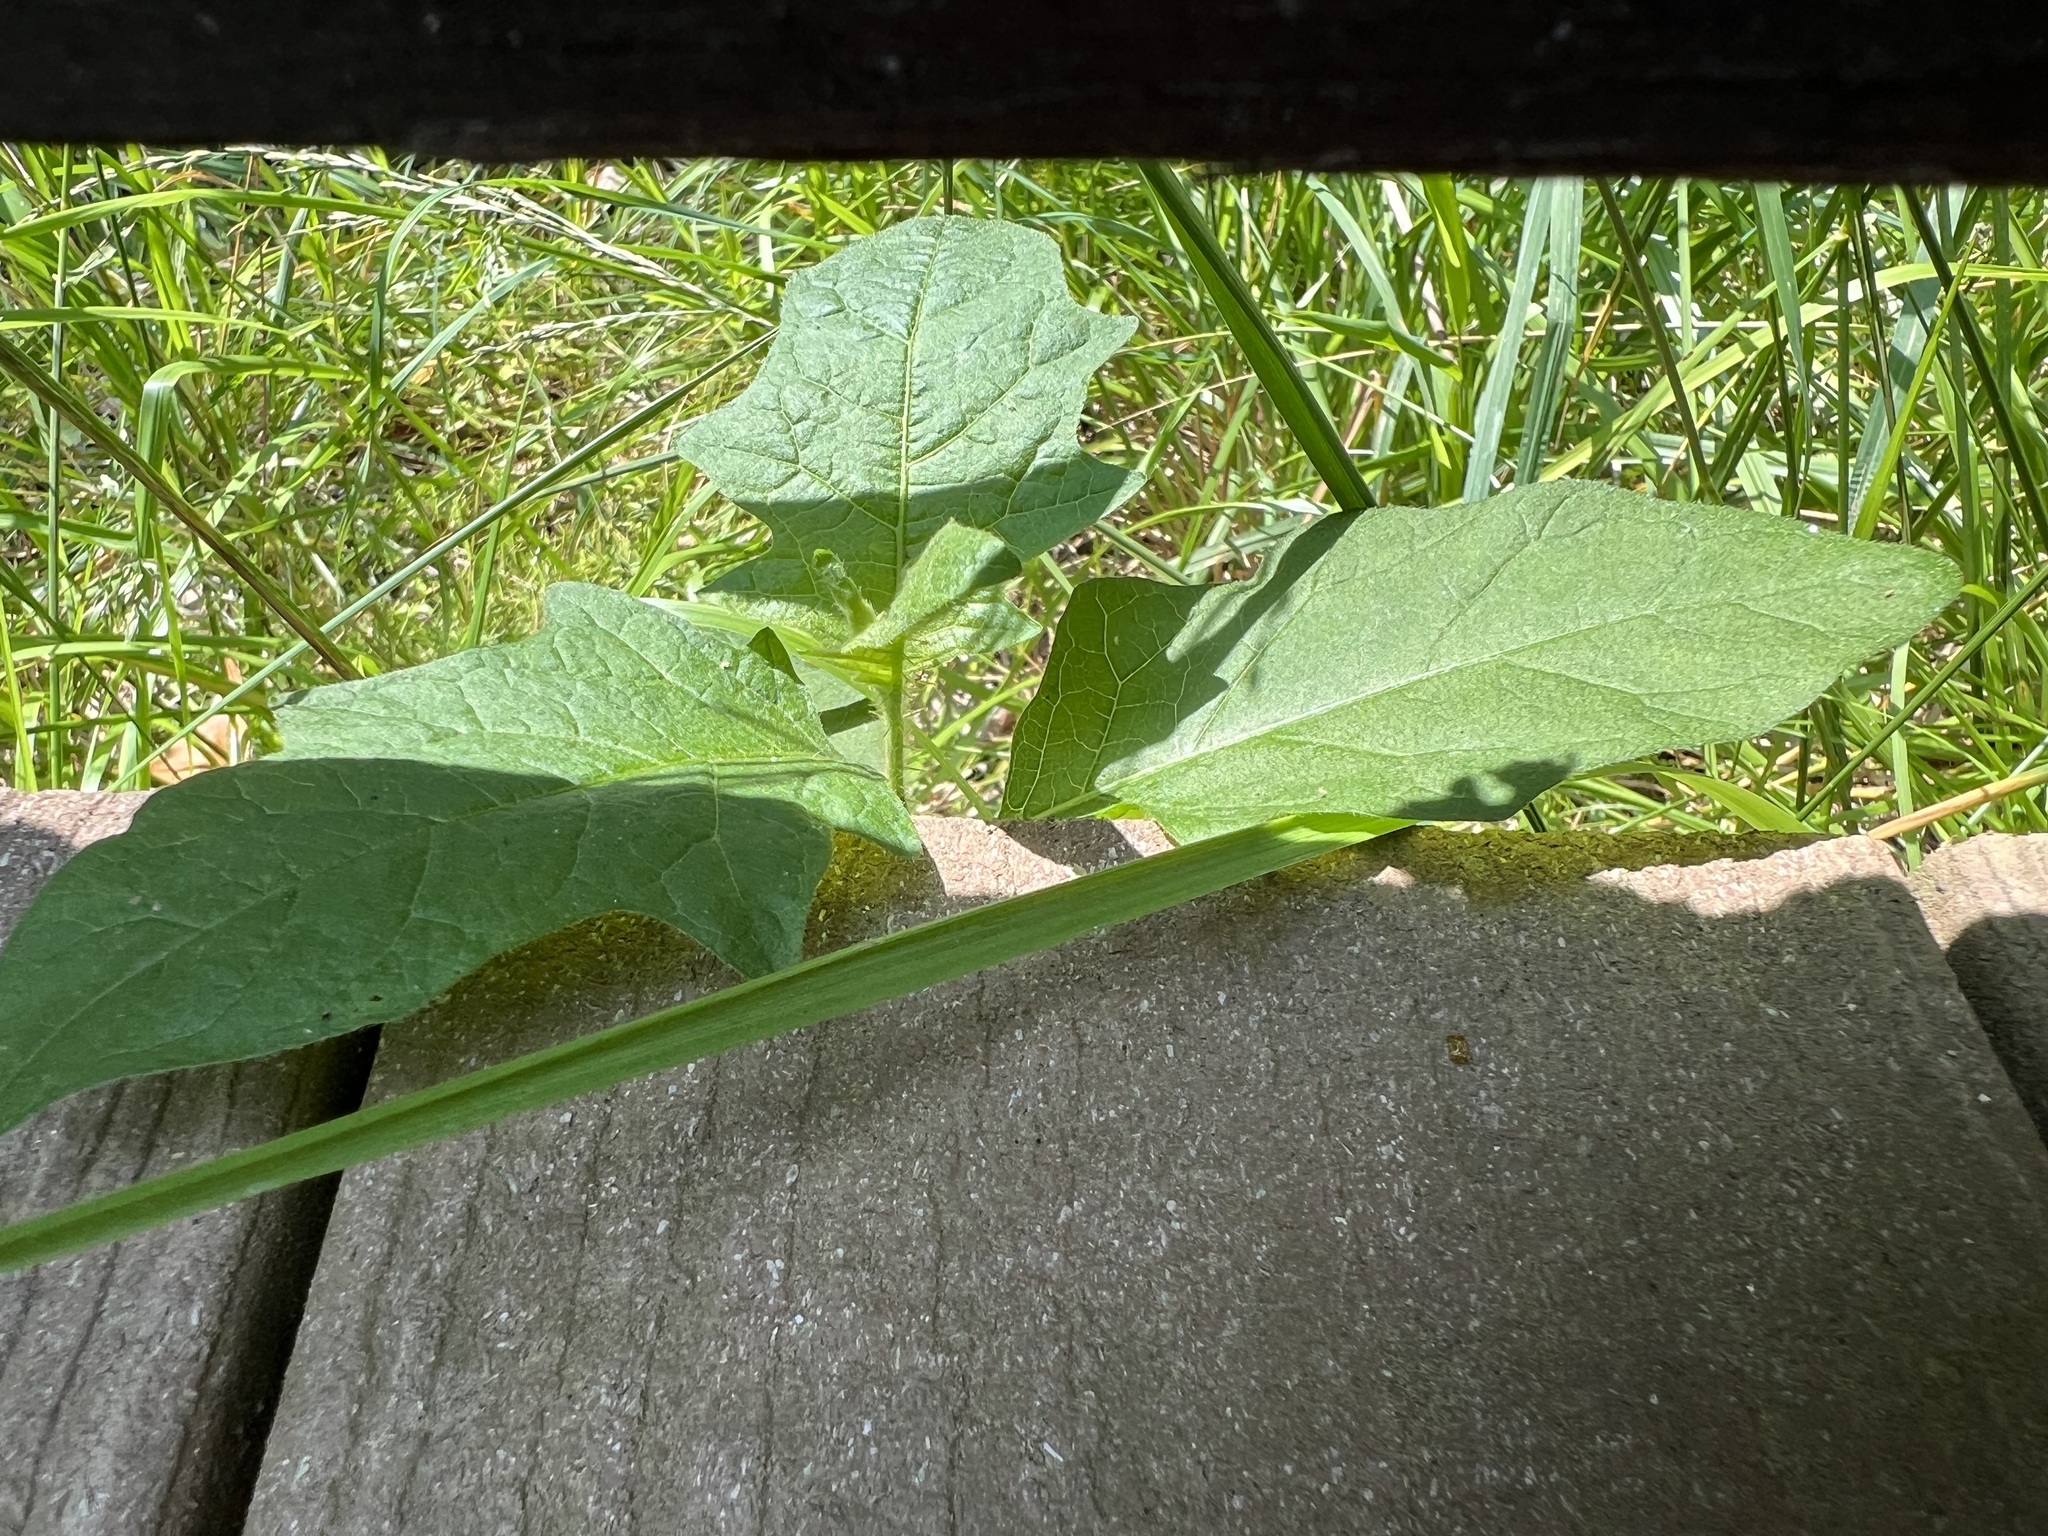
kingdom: Plantae
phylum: Tracheophyta
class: Magnoliopsida
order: Solanales
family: Solanaceae
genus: Solanum
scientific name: Solanum carolinense
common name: Horse-nettle
